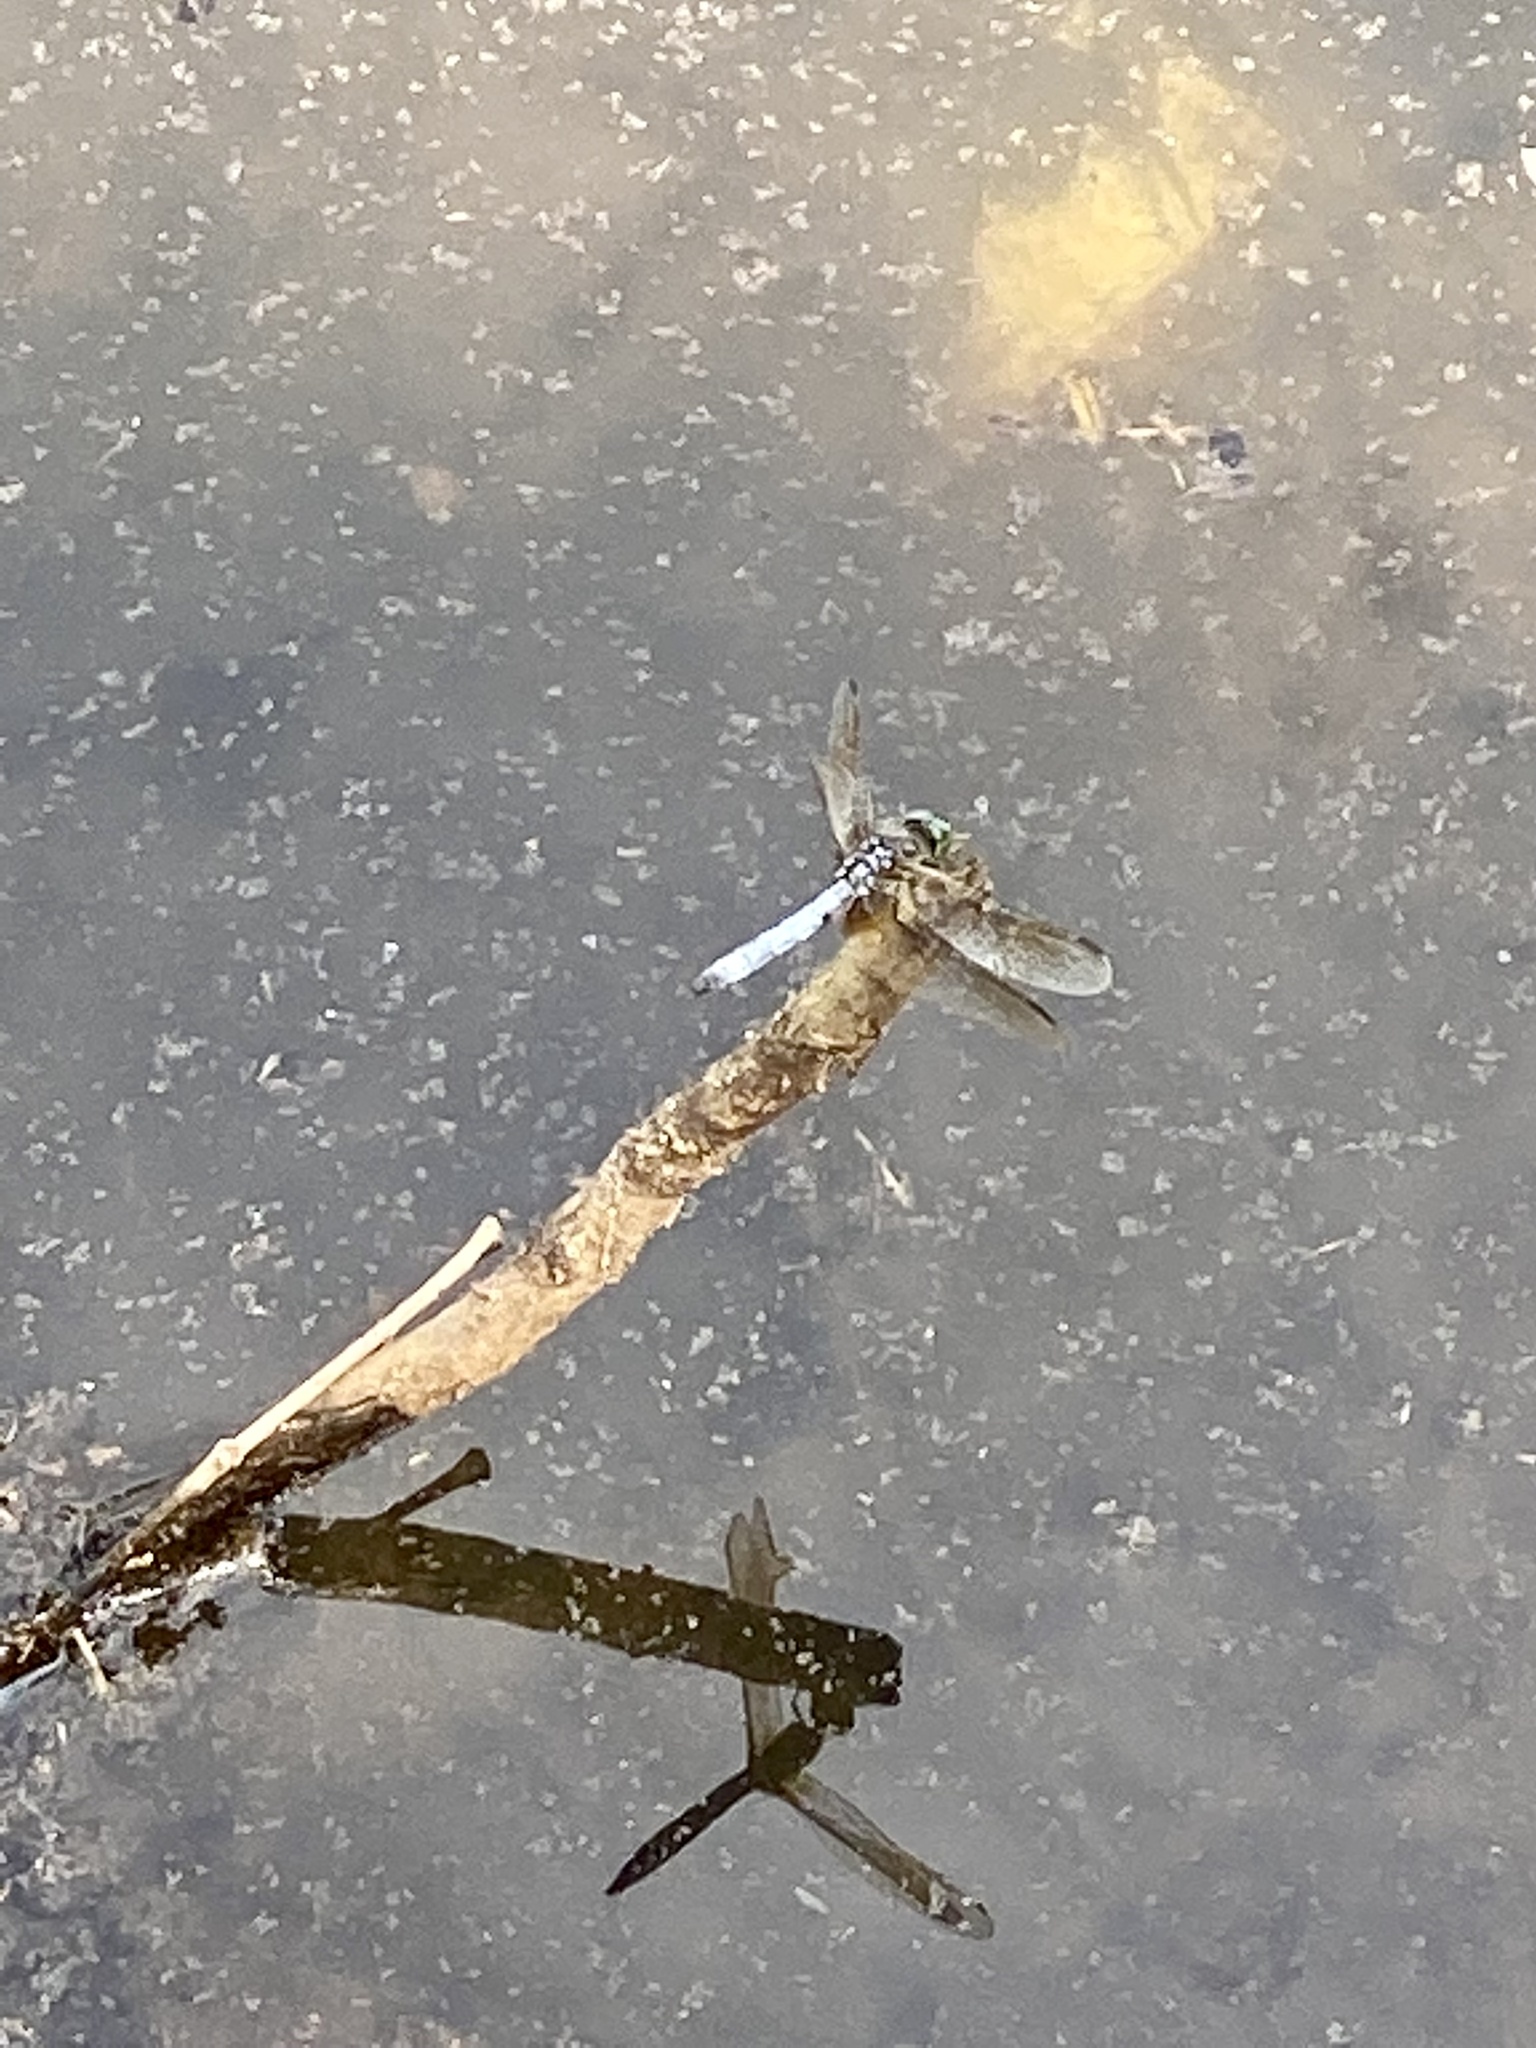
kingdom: Animalia
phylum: Arthropoda
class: Insecta
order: Odonata
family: Libellulidae
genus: Pachydiplax
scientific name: Pachydiplax longipennis
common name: Blue dasher
